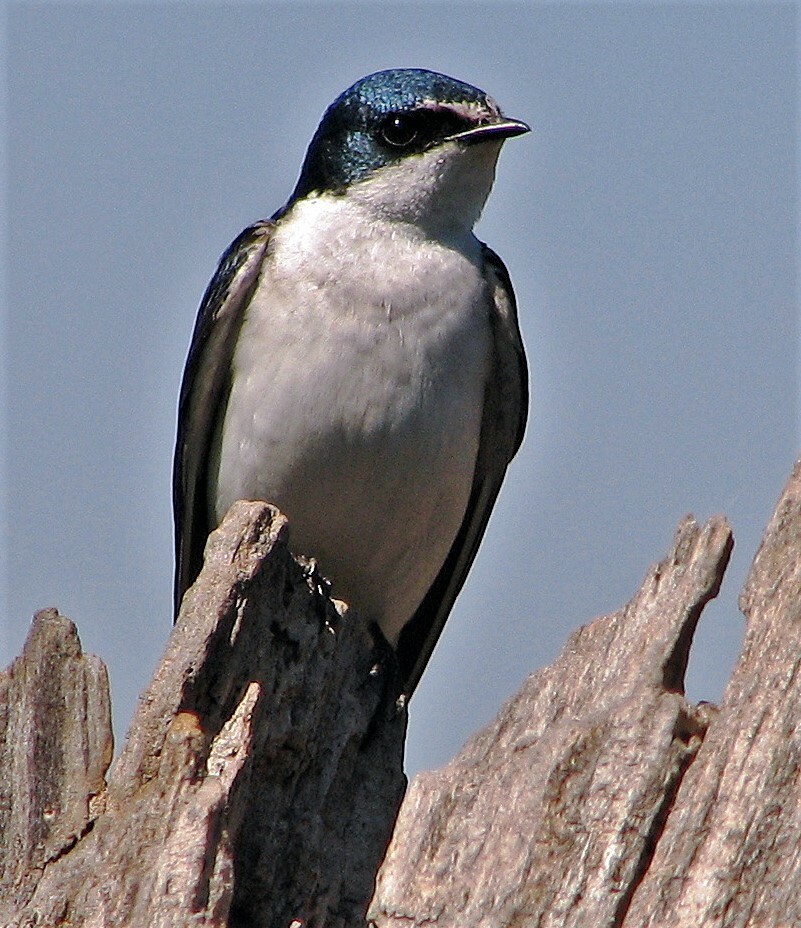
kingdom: Animalia
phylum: Chordata
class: Aves
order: Passeriformes
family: Hirundinidae
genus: Tachycineta
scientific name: Tachycineta leucorrhoa
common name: White-rumped swallow
